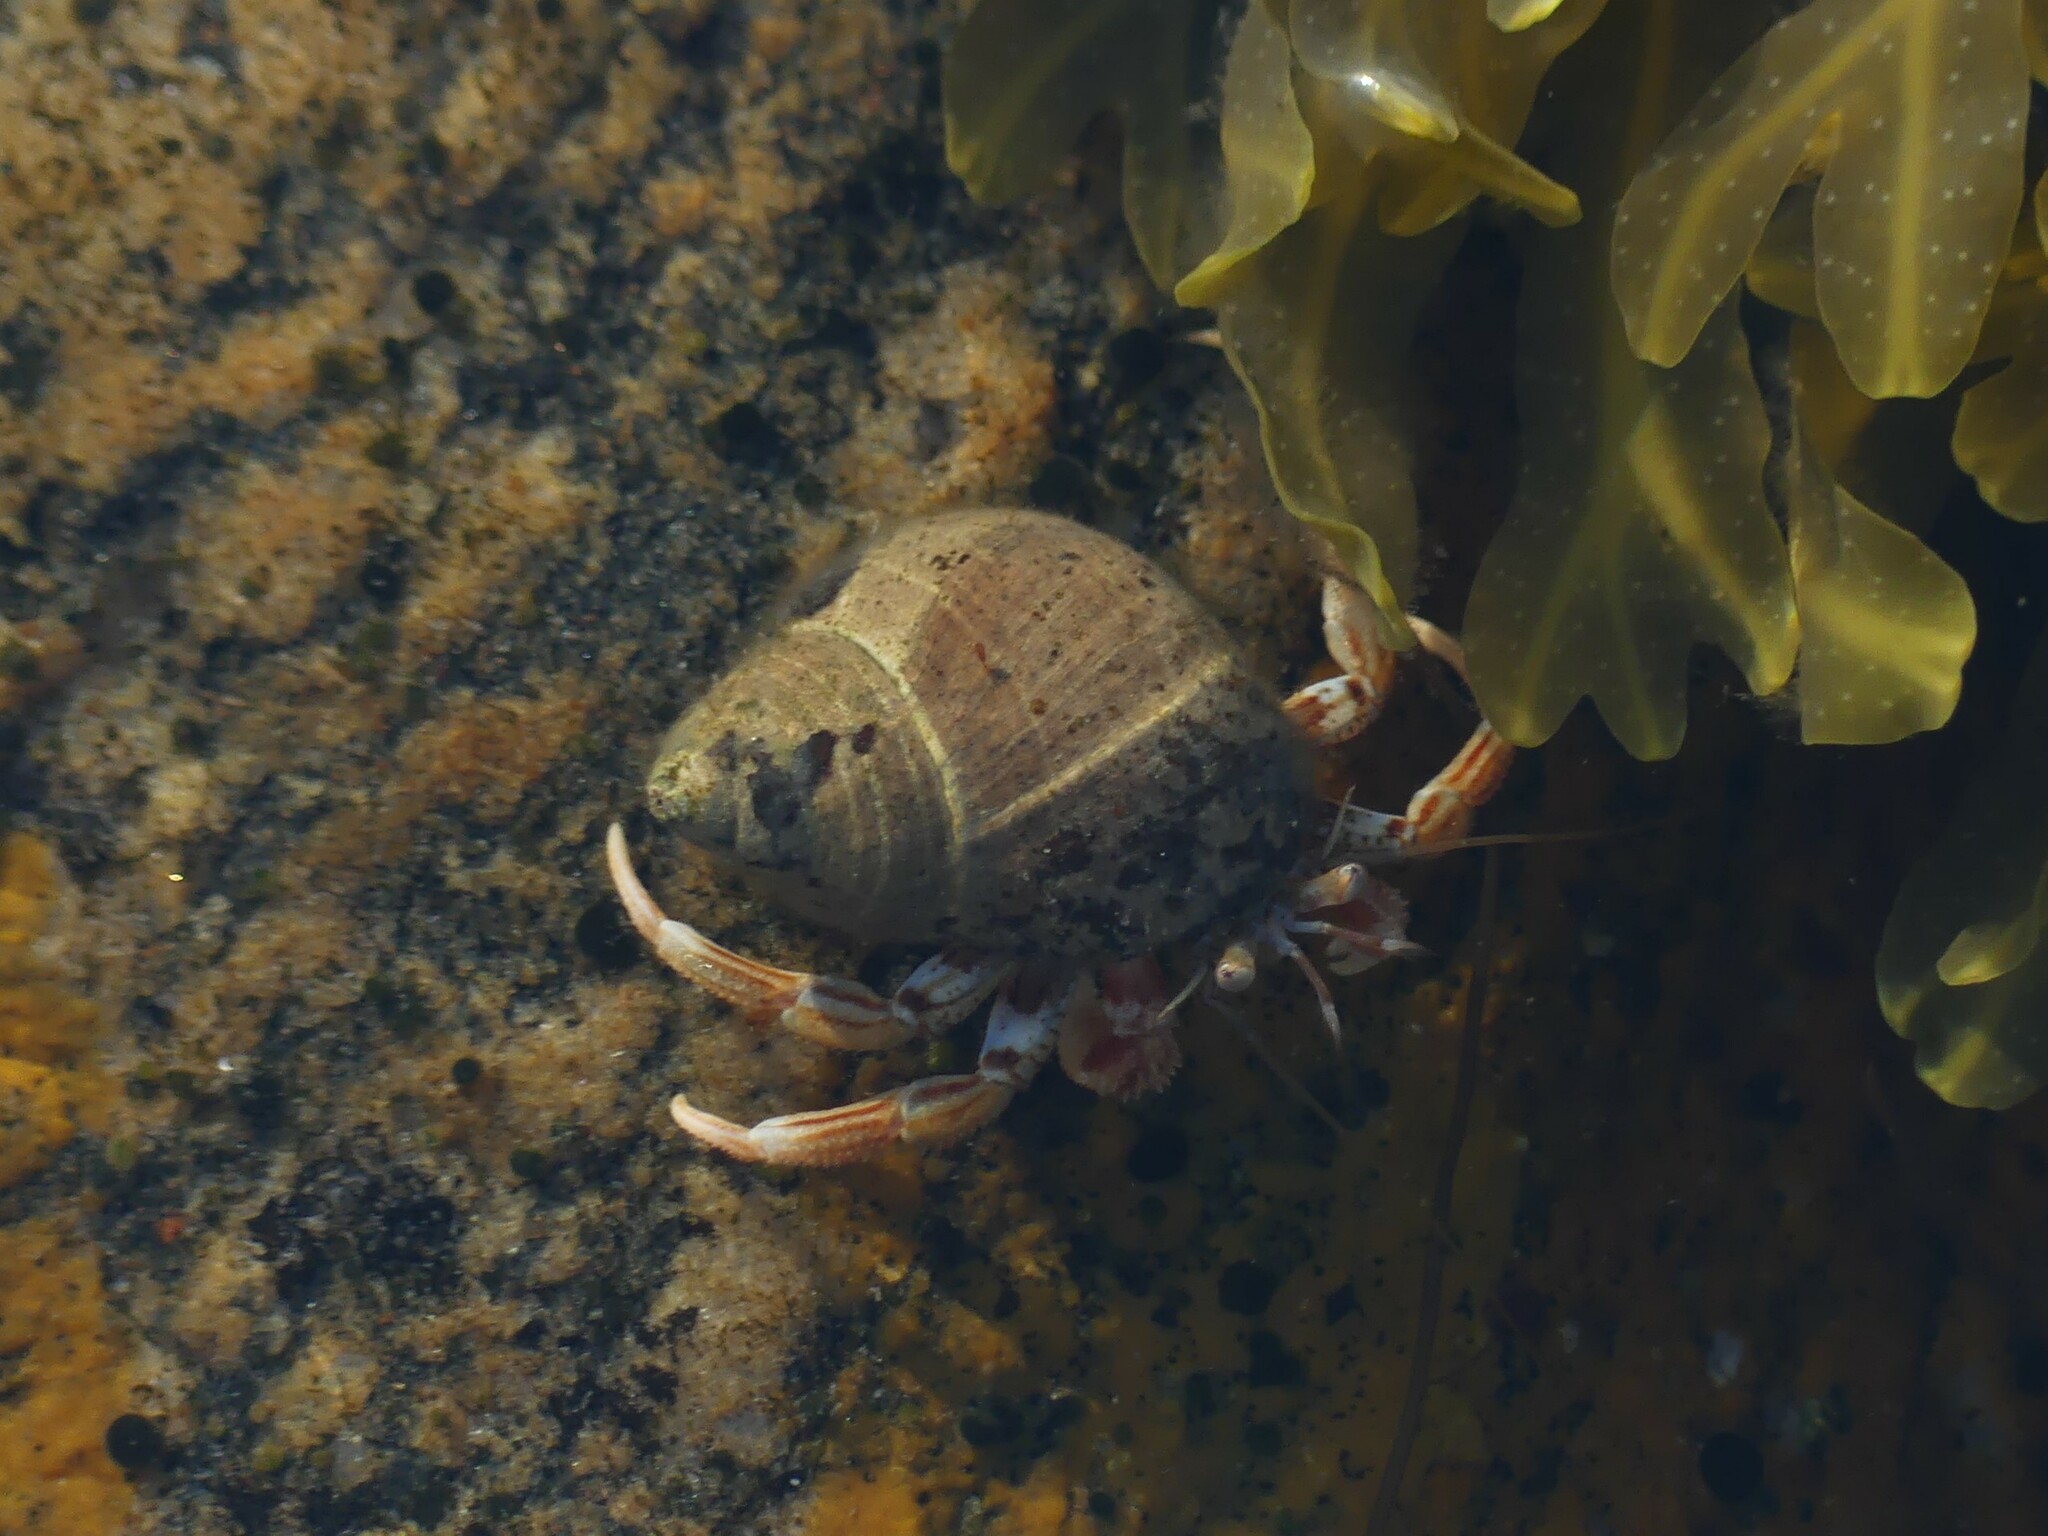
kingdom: Animalia
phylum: Arthropoda
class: Malacostraca
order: Decapoda
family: Paguridae
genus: Pagurus
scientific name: Pagurus bernhardus
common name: Hermit crab
